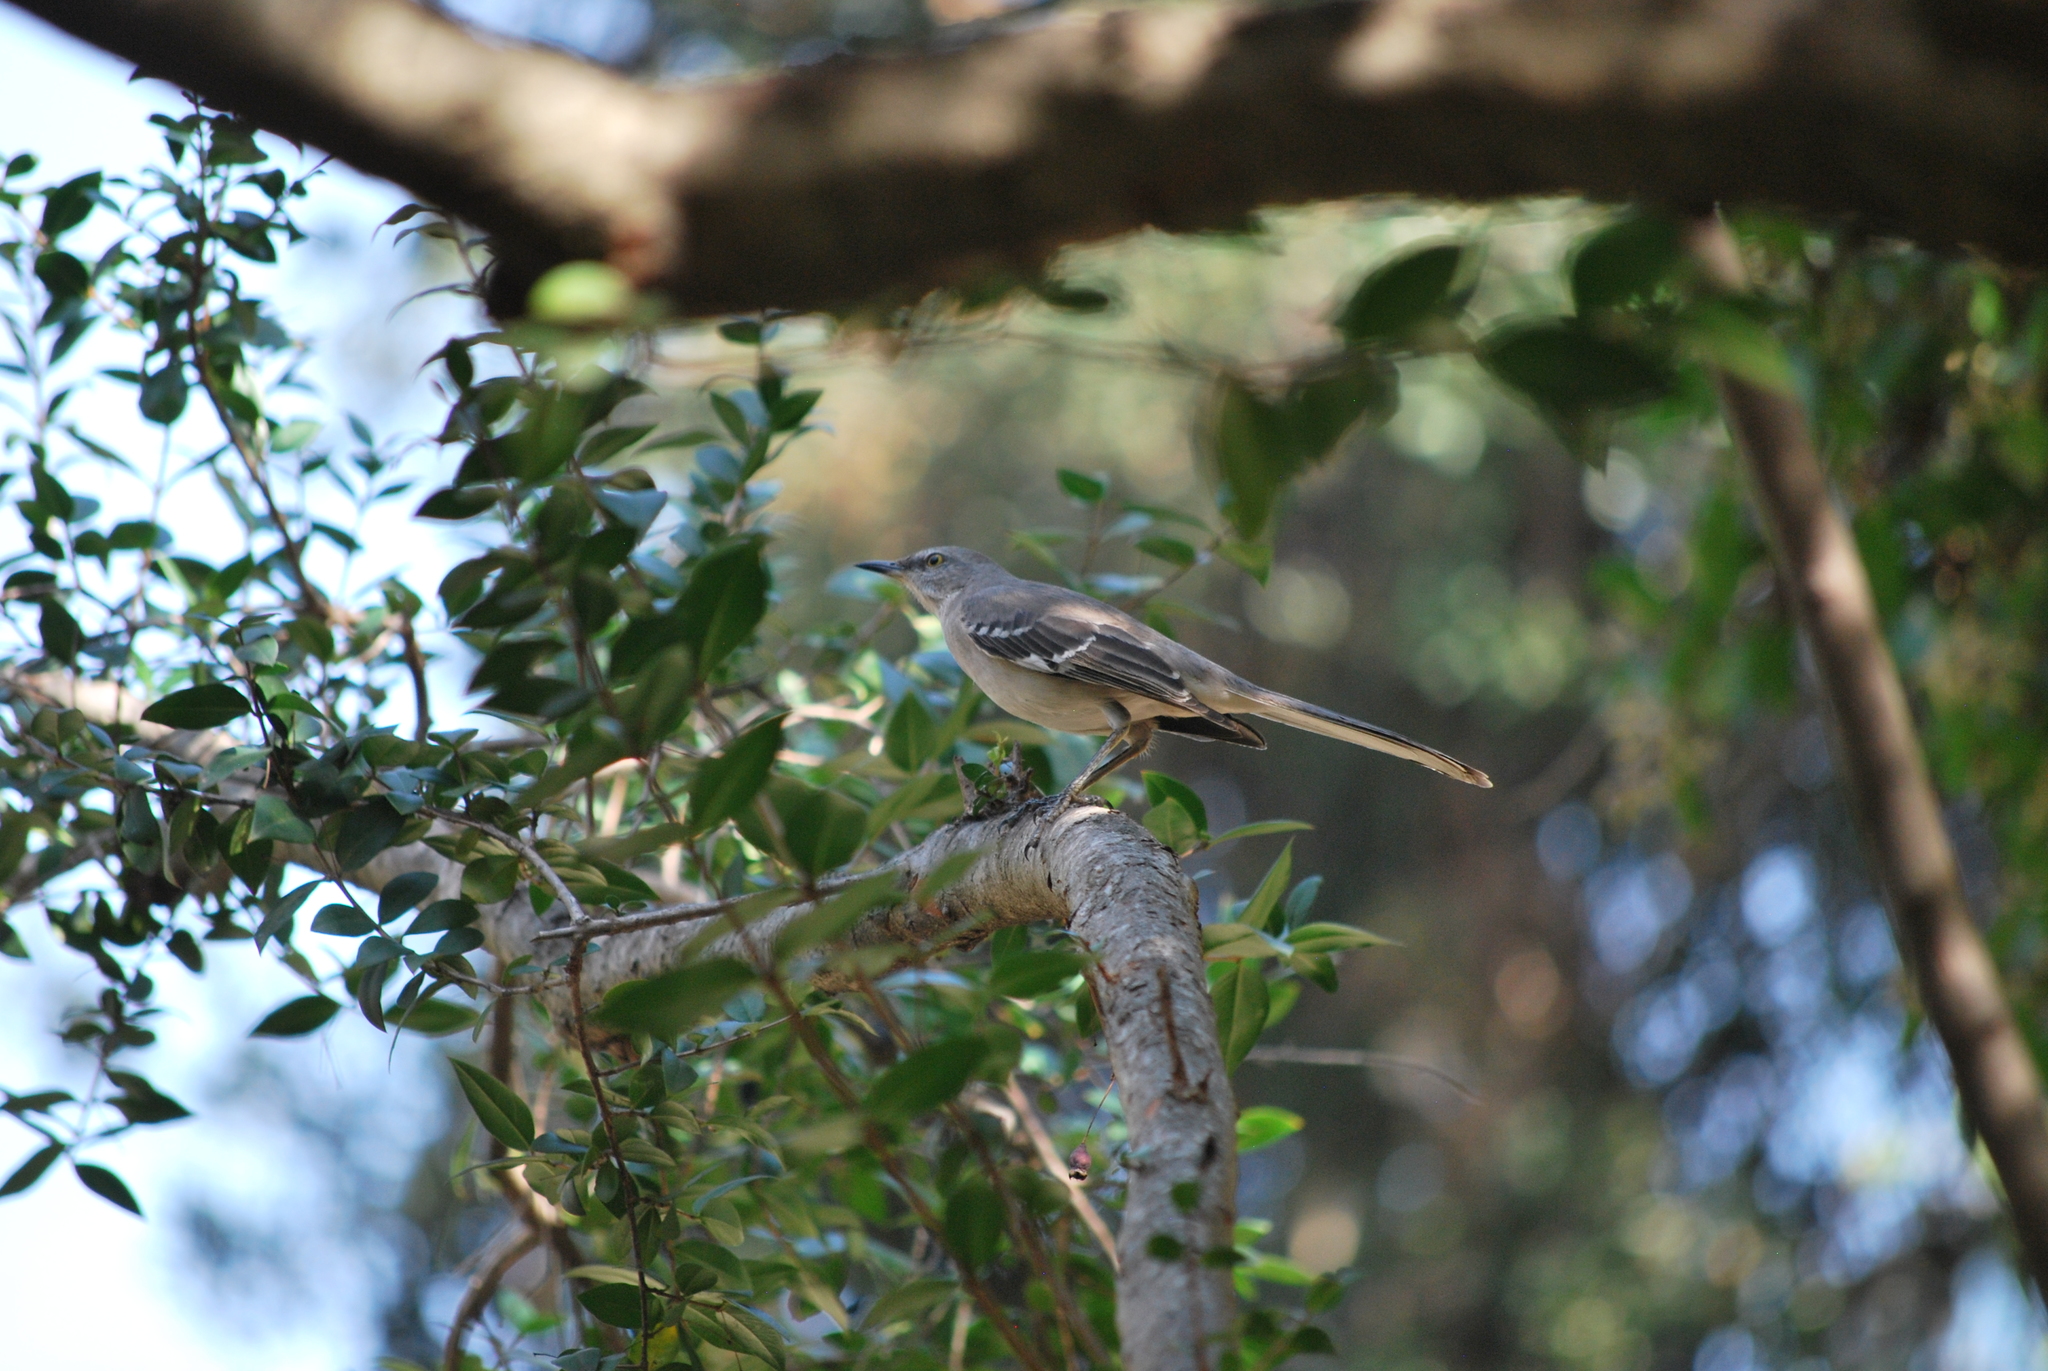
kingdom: Animalia
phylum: Chordata
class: Aves
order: Passeriformes
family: Mimidae
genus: Mimus
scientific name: Mimus polyglottos
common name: Northern mockingbird
